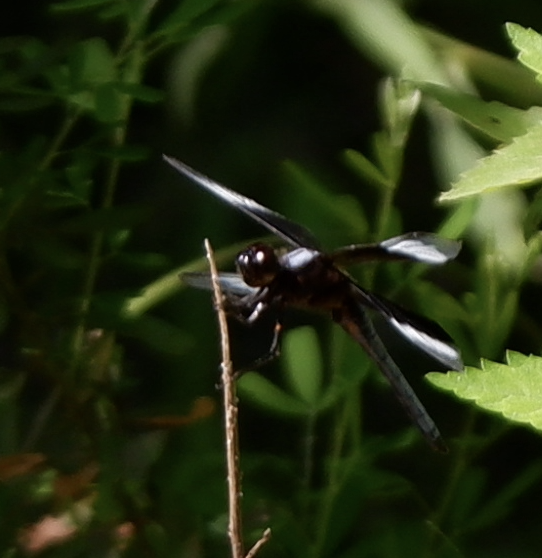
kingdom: Animalia
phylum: Arthropoda
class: Insecta
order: Odonata
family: Libellulidae
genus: Libellula
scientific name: Libellula luctuosa
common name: Widow skimmer
